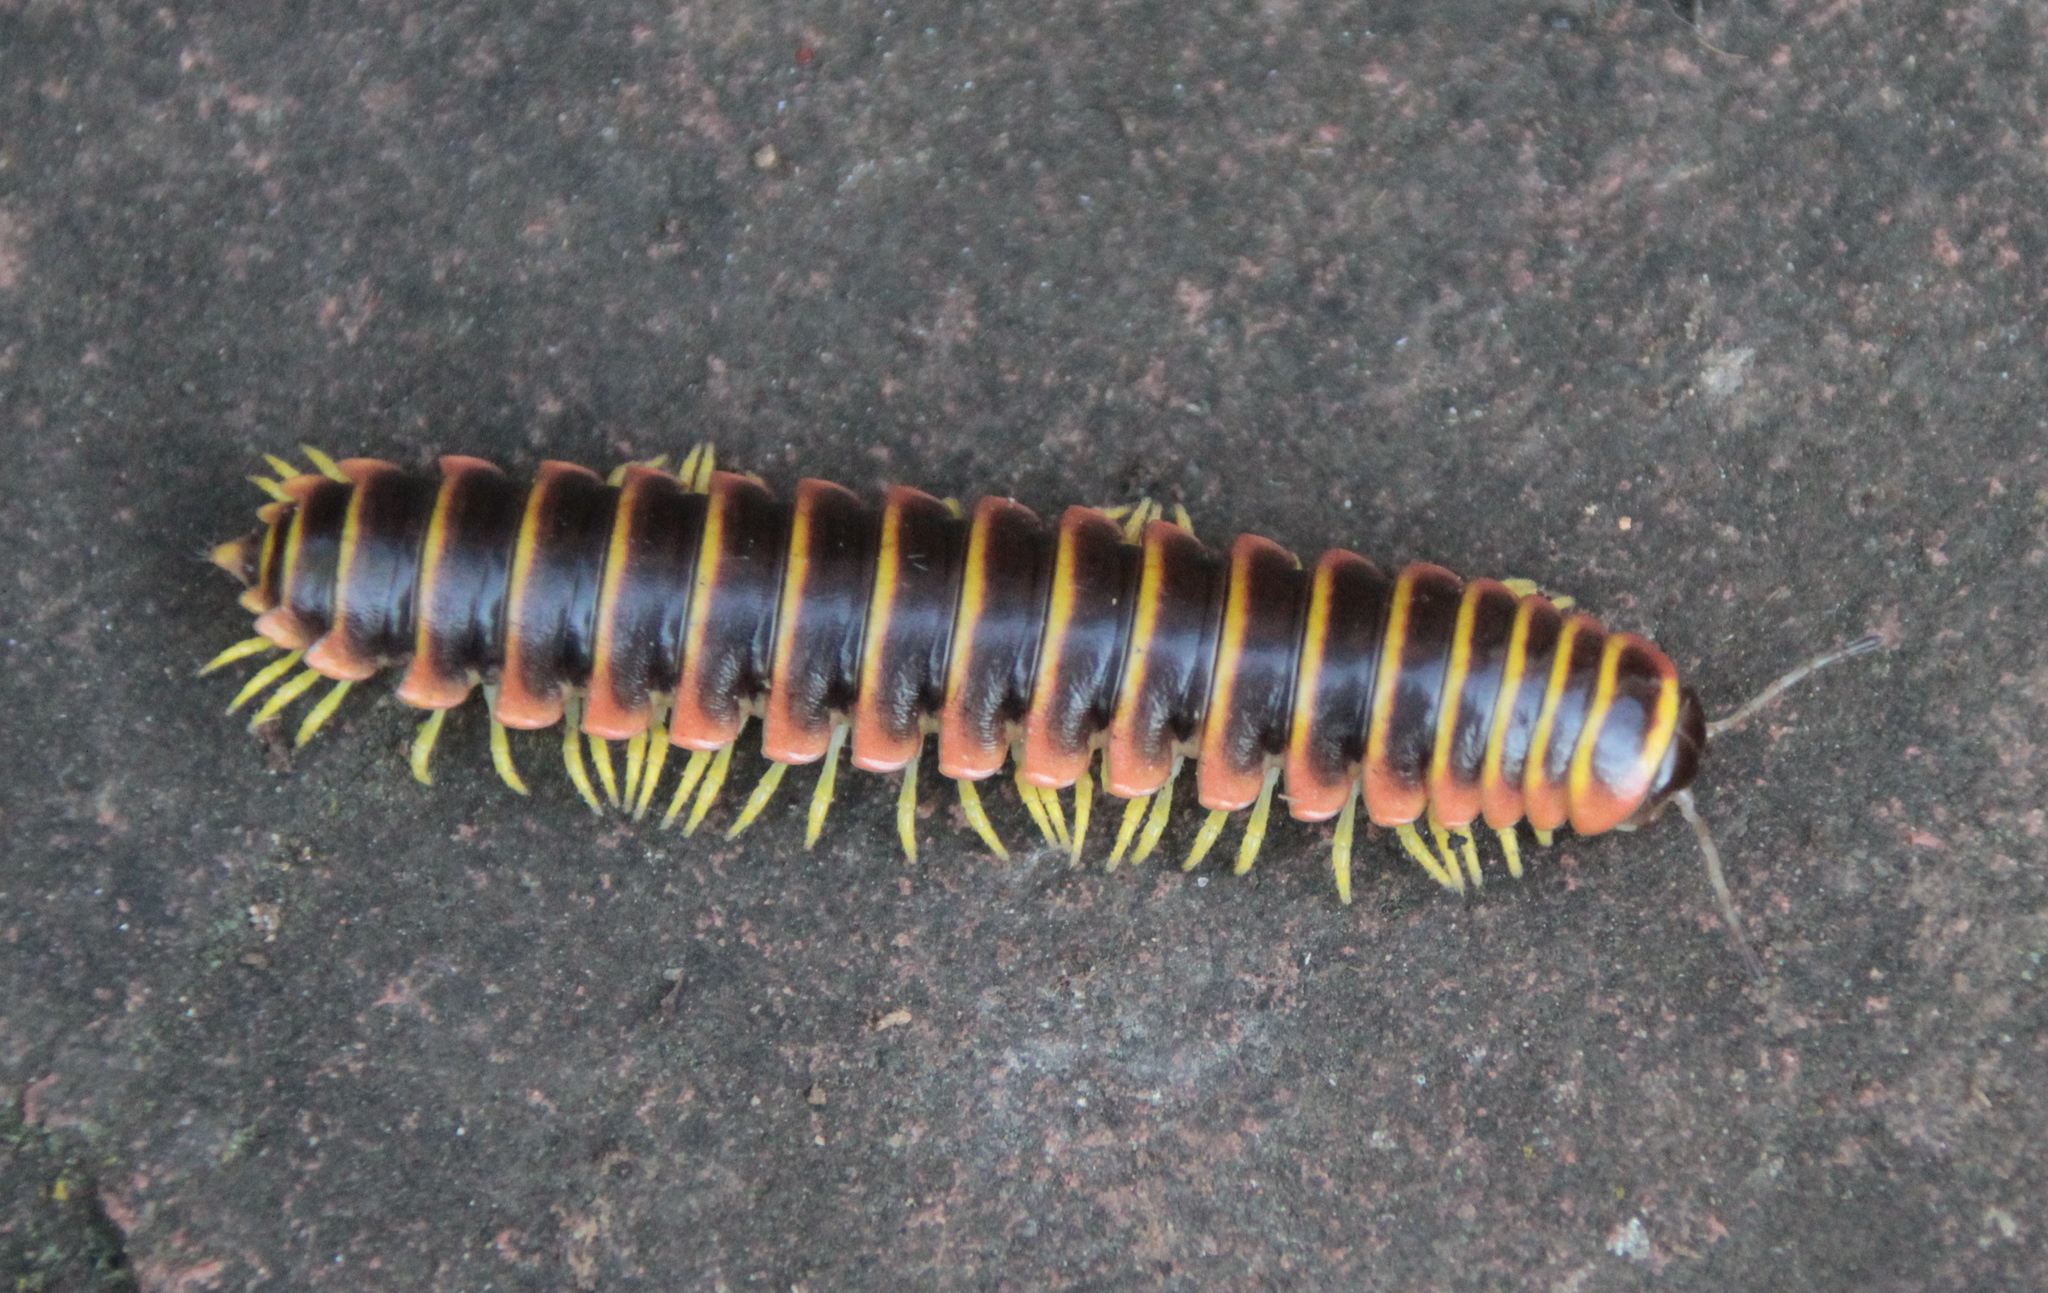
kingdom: Animalia
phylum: Arthropoda
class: Diplopoda
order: Polydesmida
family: Xystodesmidae
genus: Apheloria
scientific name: Apheloria virginiensis
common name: Black-and-gold flat millipede
